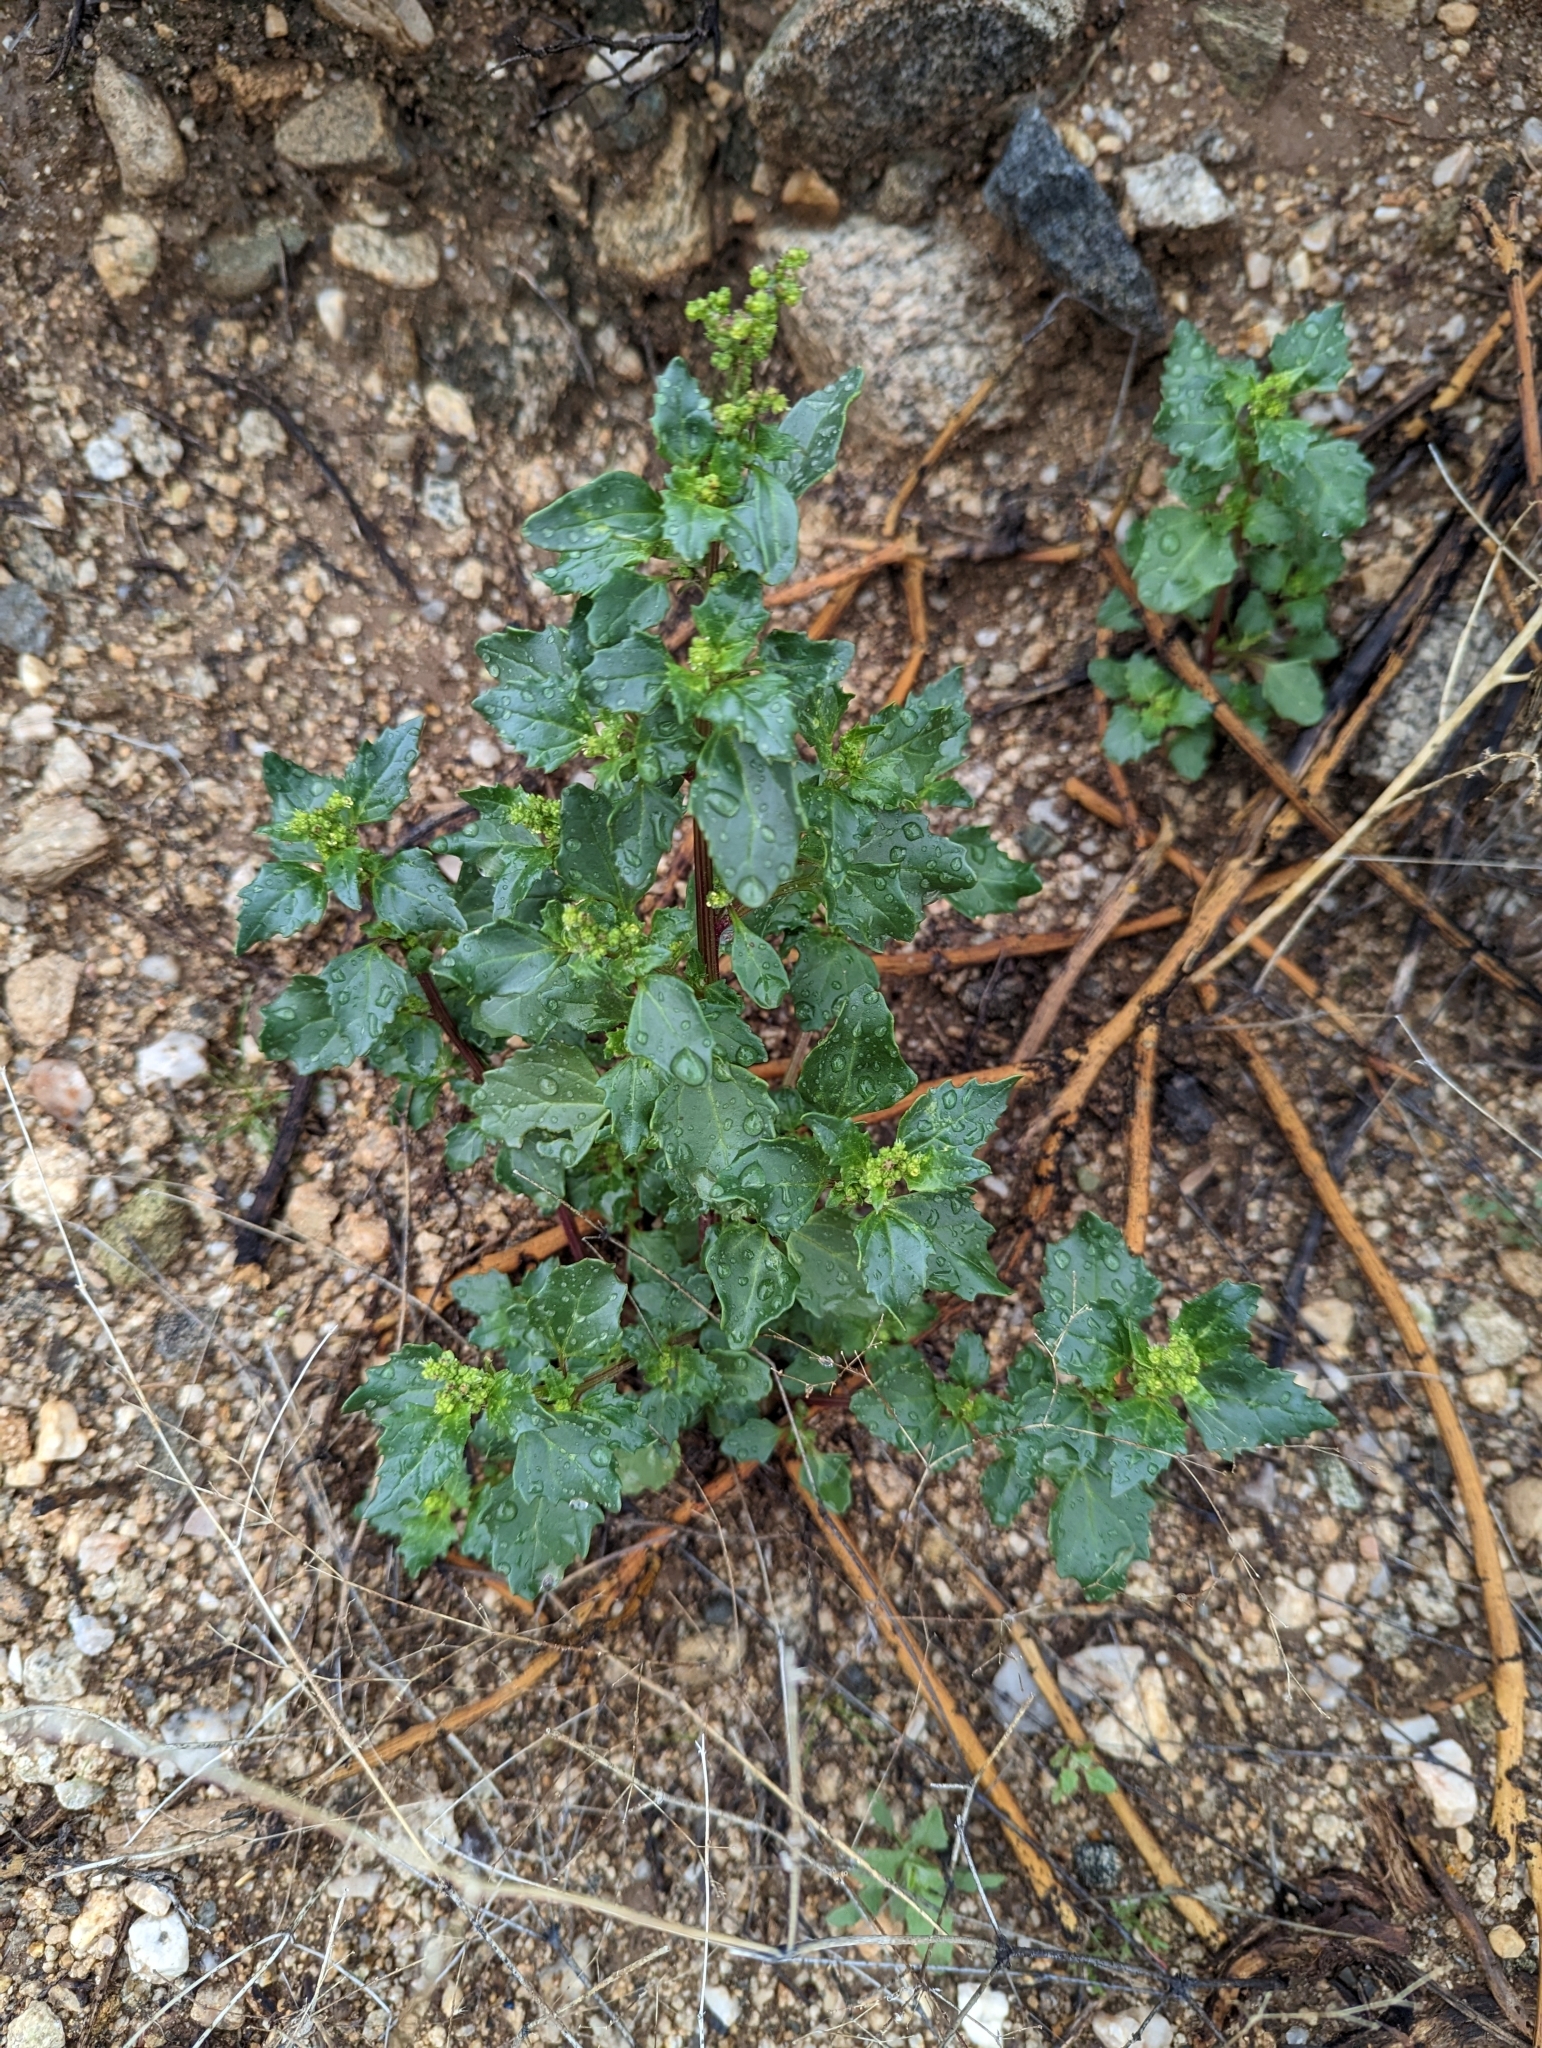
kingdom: Plantae
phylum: Tracheophyta
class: Magnoliopsida
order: Caryophyllales
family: Amaranthaceae
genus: Chenopodiastrum
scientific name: Chenopodiastrum murale
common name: Sowbane
